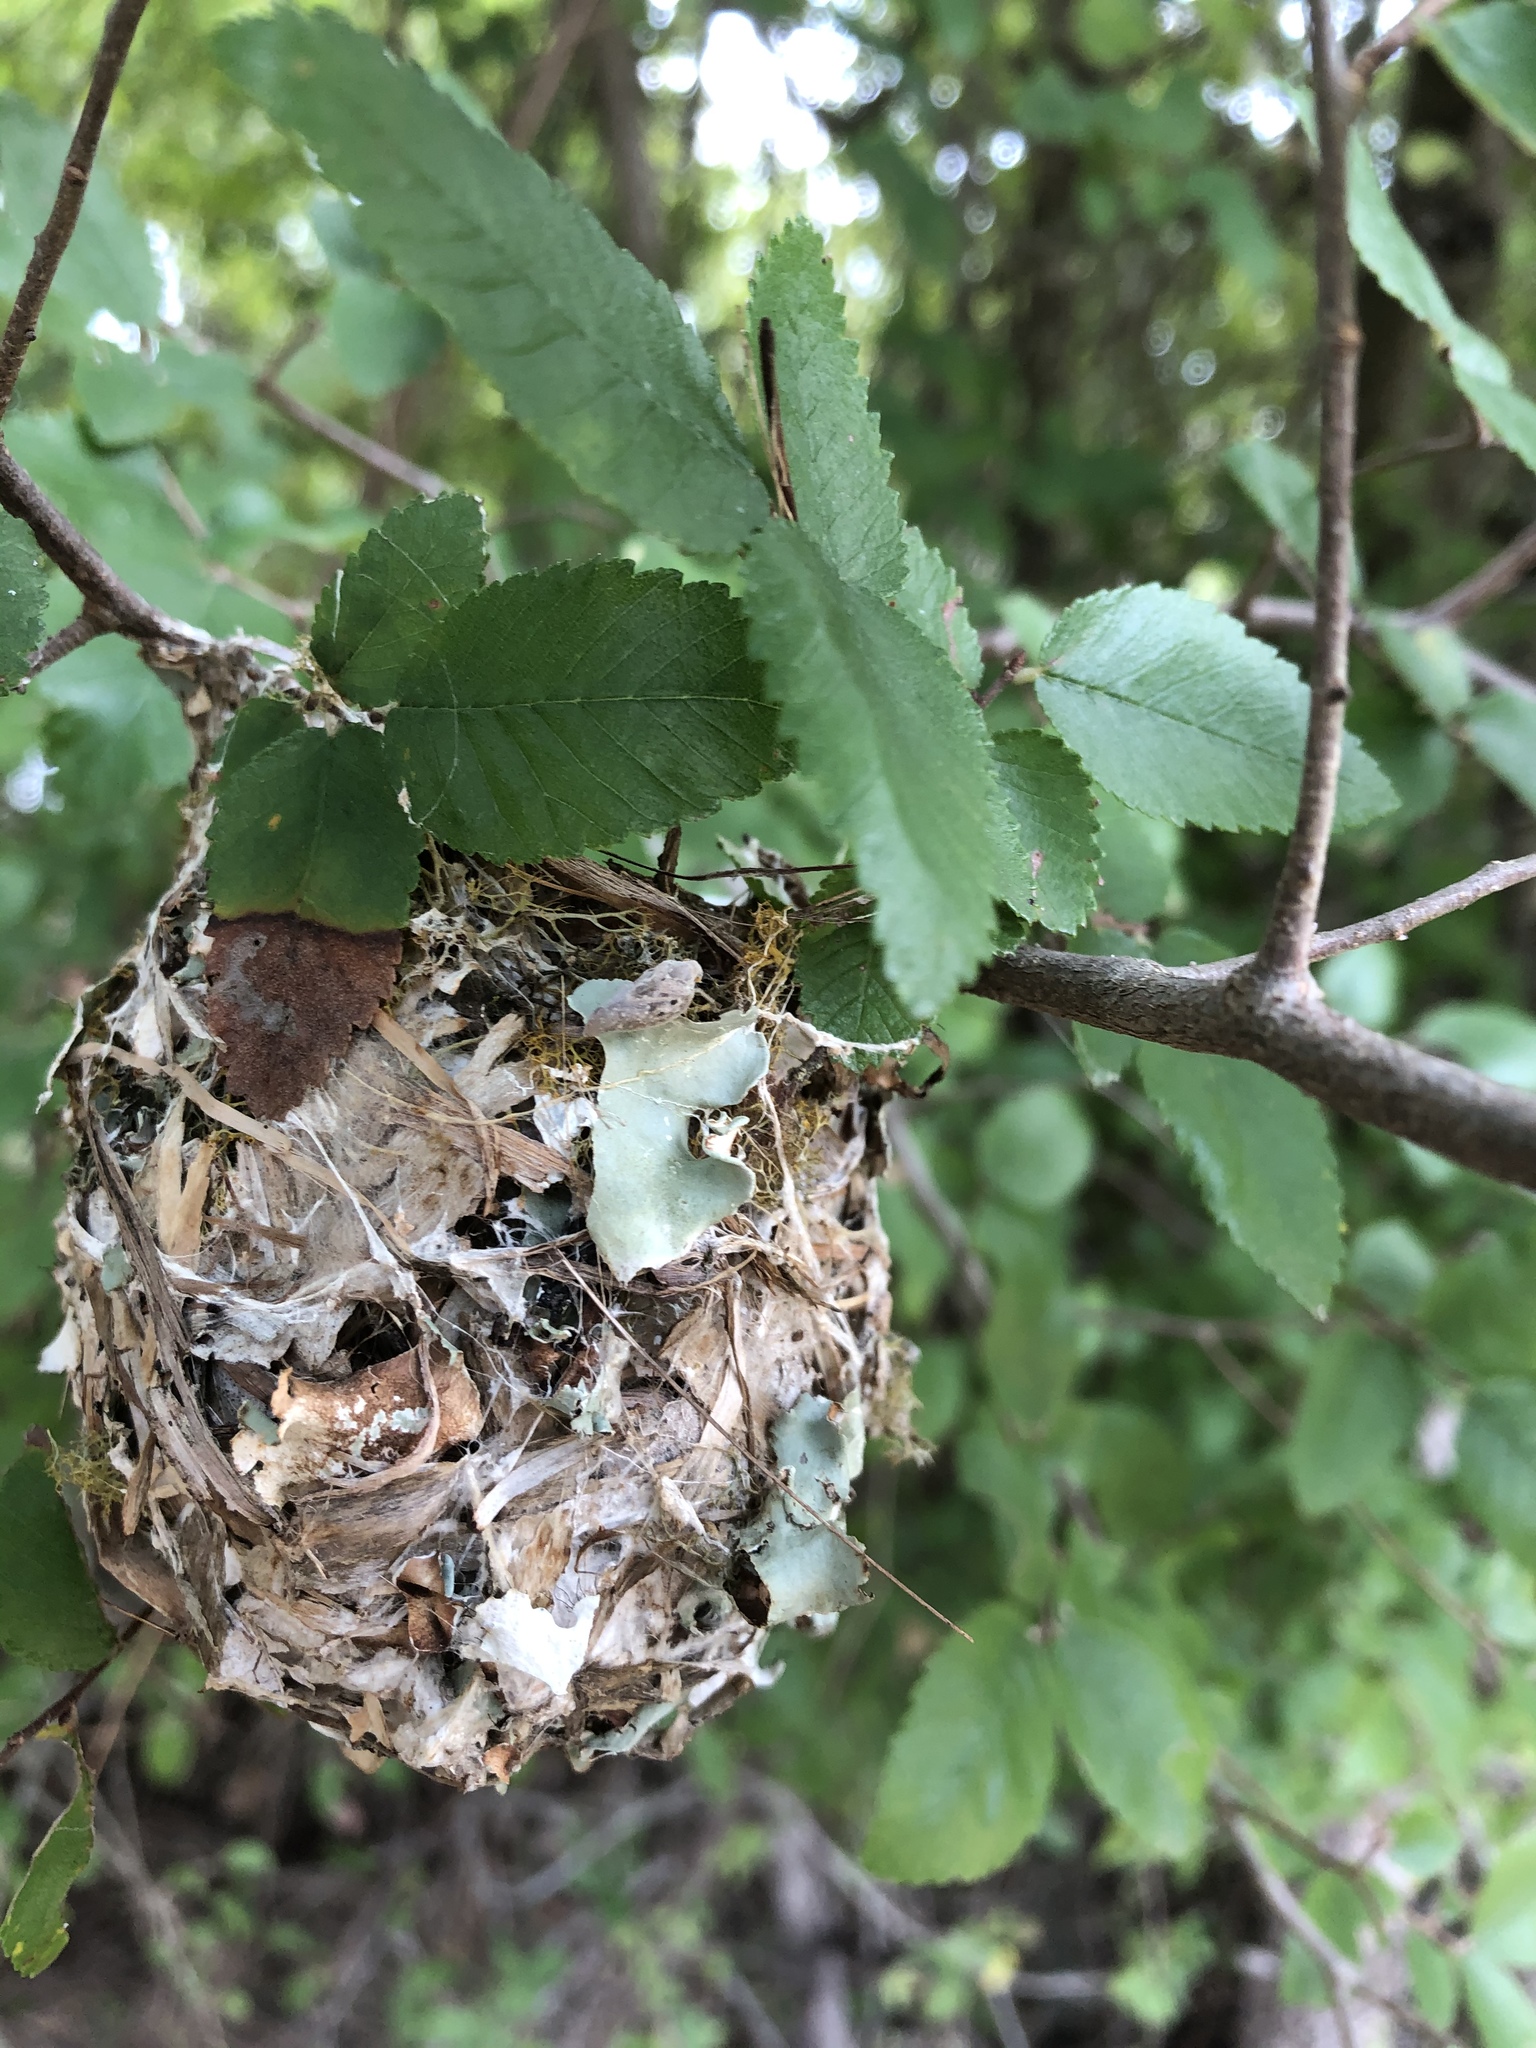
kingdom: Animalia
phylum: Chordata
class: Aves
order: Passeriformes
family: Vireonidae
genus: Vireo
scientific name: Vireo griseus
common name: White-eyed vireo
